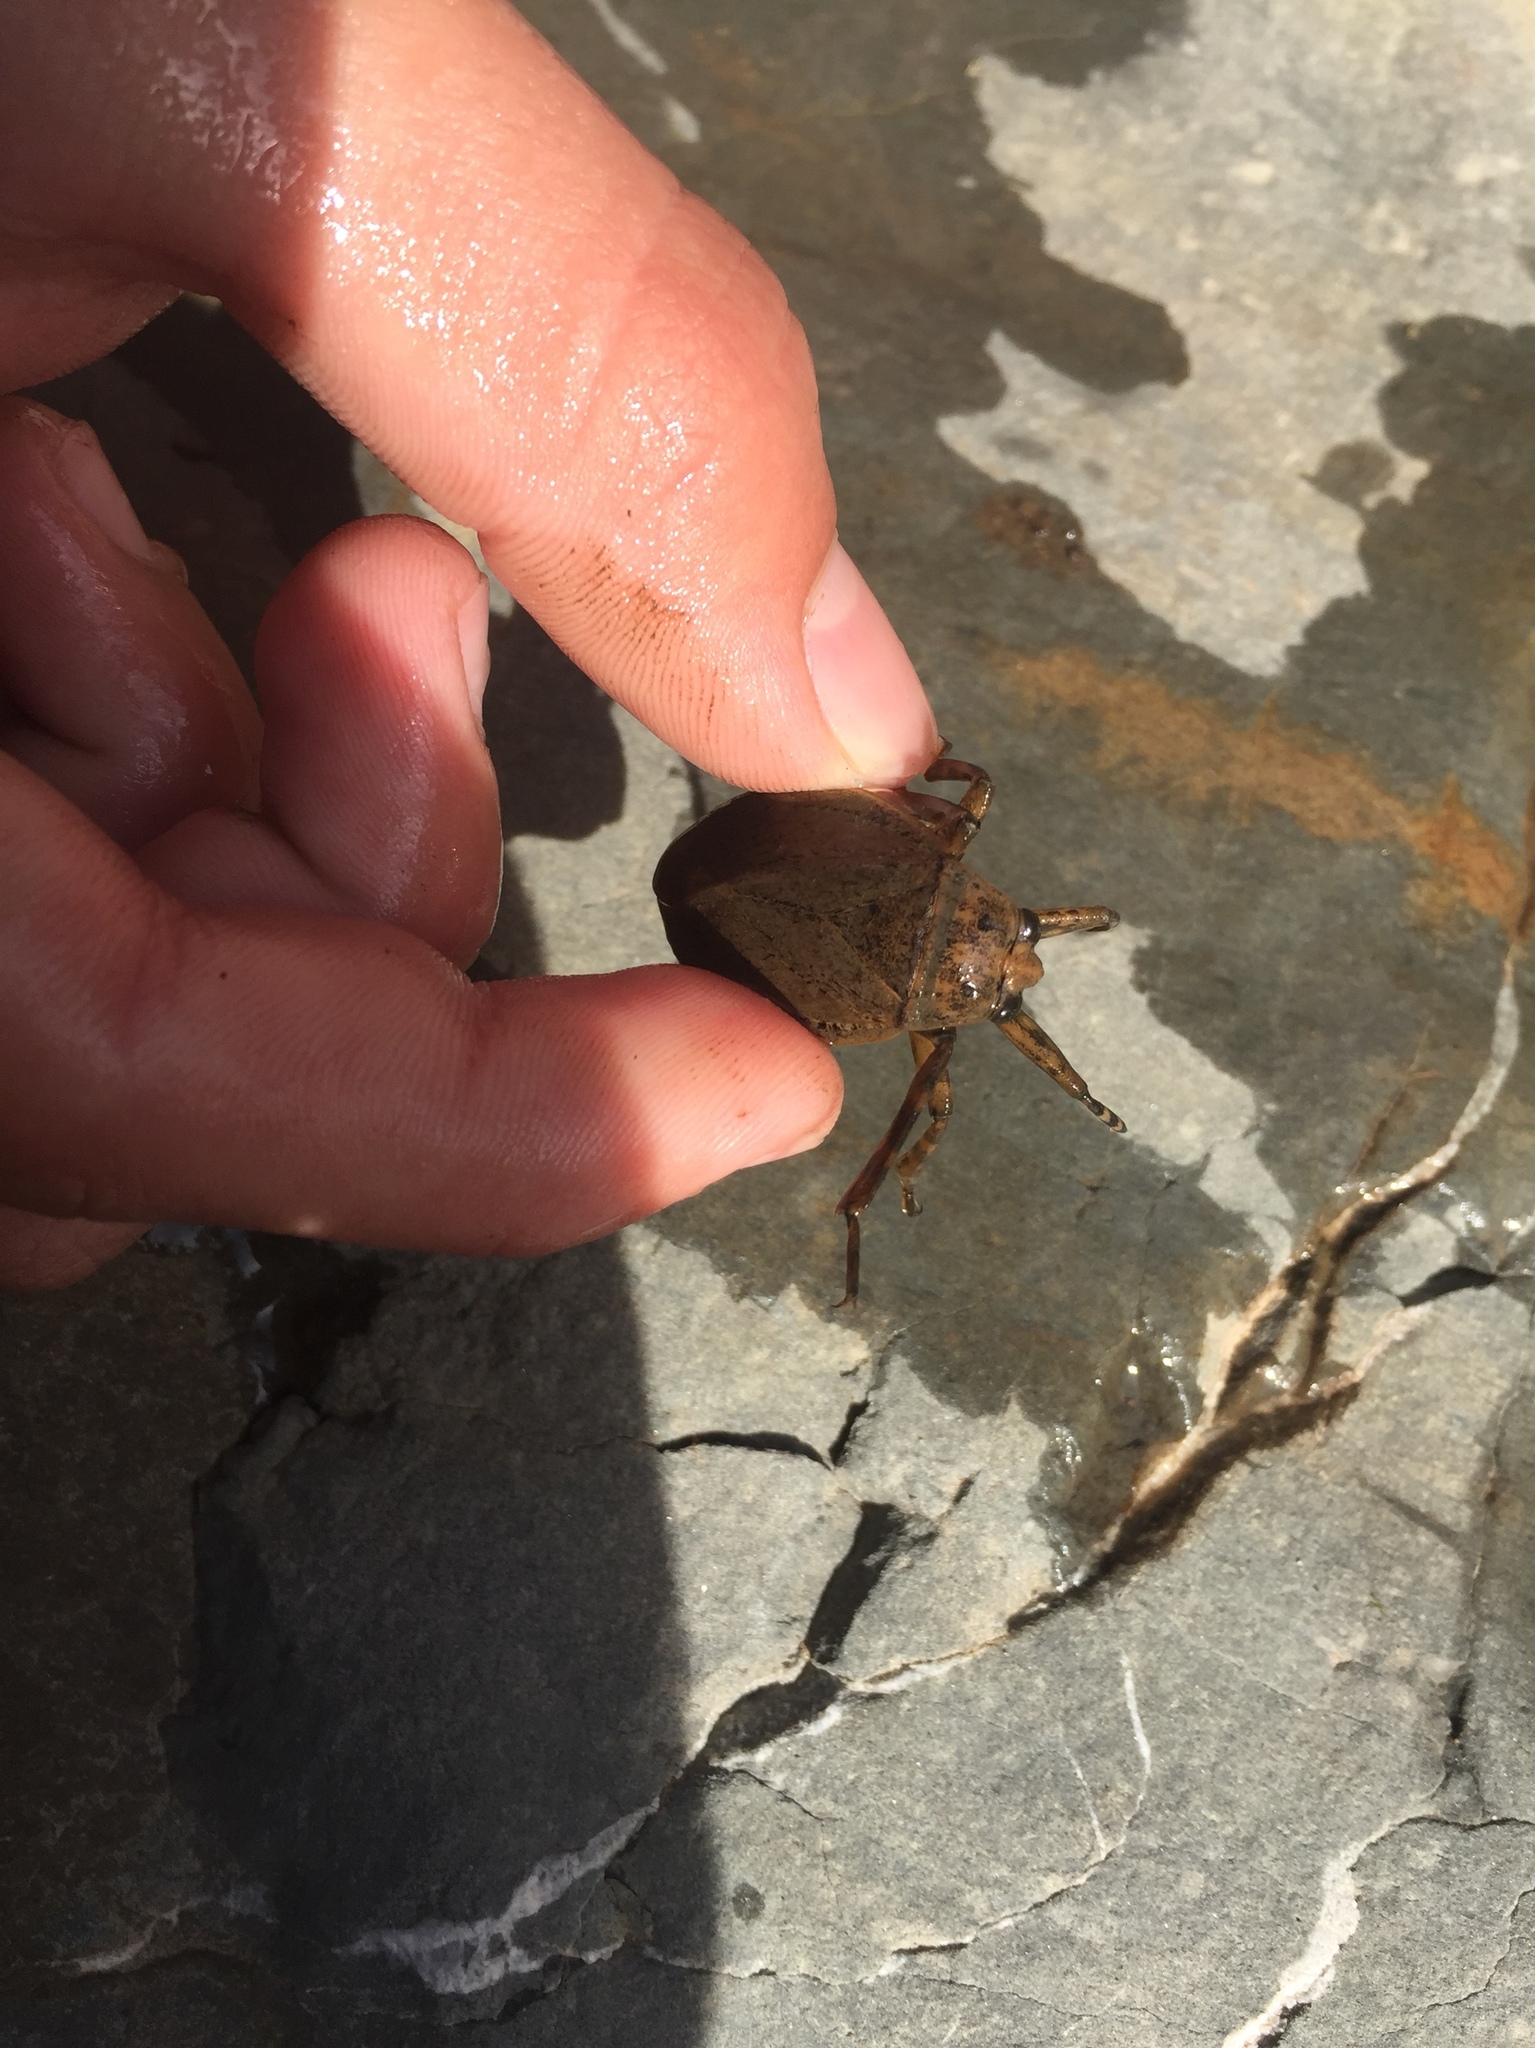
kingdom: Animalia
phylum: Arthropoda
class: Insecta
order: Hemiptera
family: Belostomatidae
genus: Abedus
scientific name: Abedus indentatus
